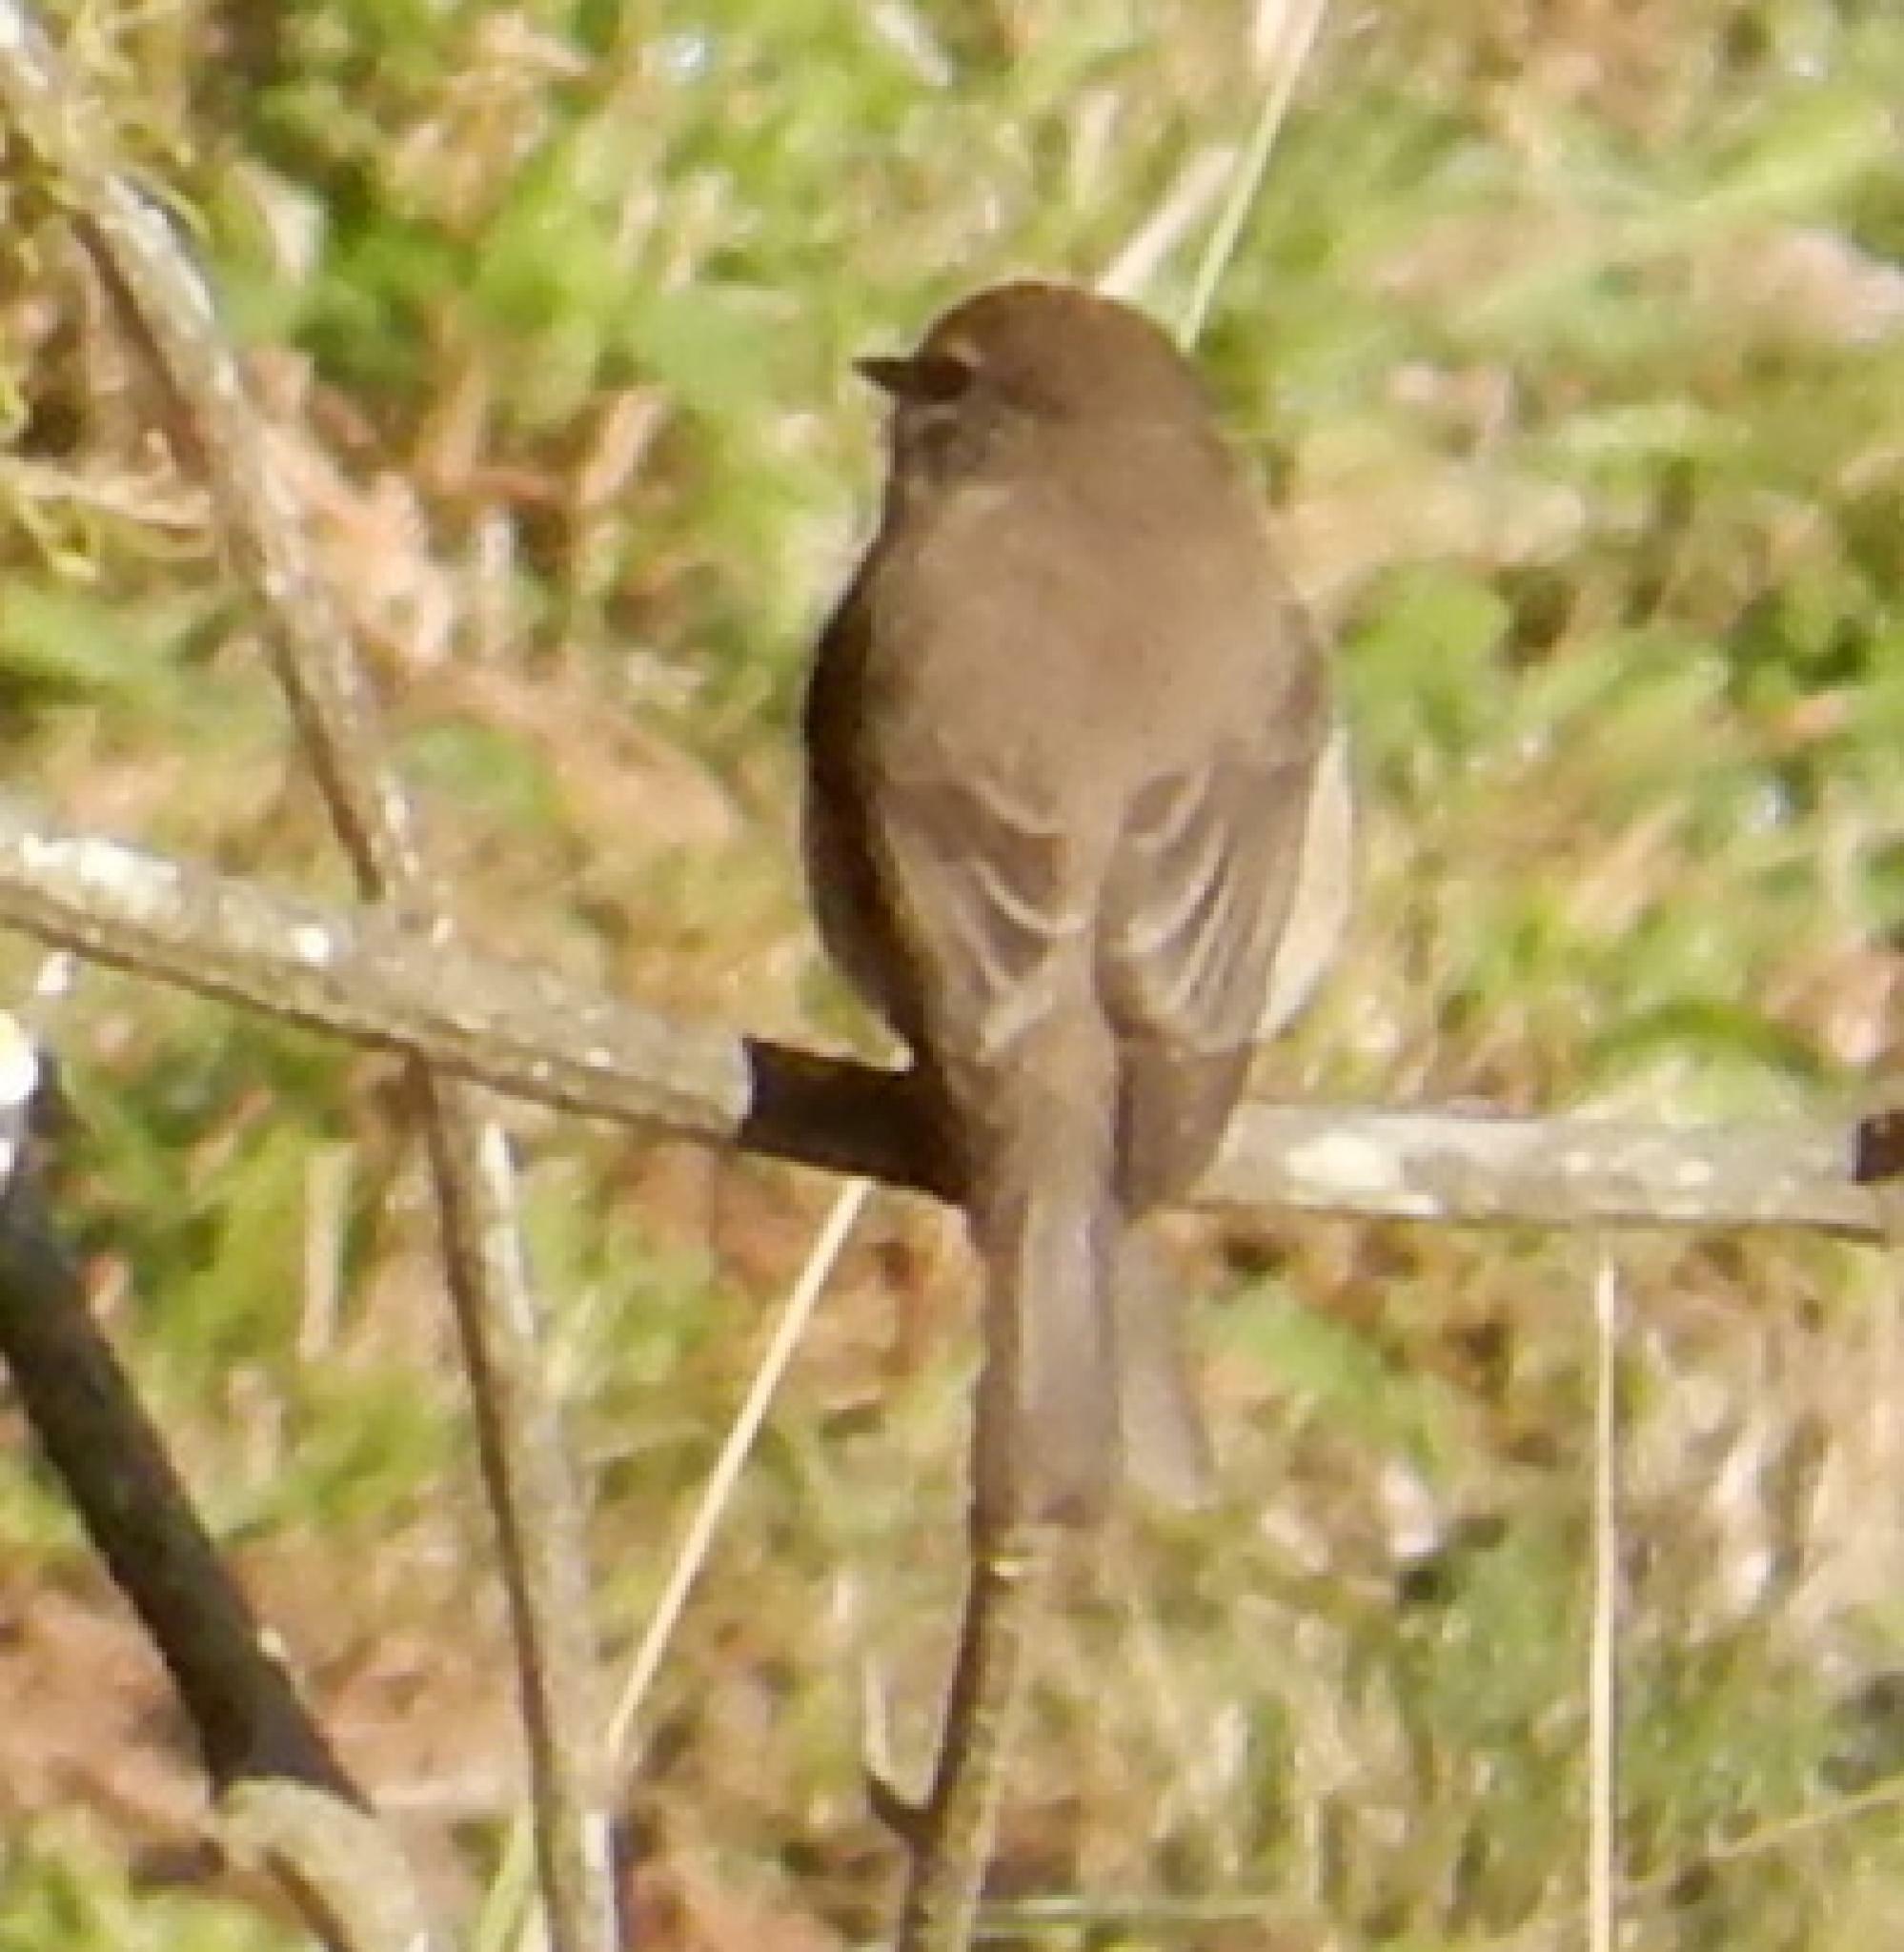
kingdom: Animalia
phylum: Chordata
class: Aves
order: Passeriformes
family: Muscicapidae
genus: Muscicapa
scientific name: Muscicapa adusta
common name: African dusky flycatcher
